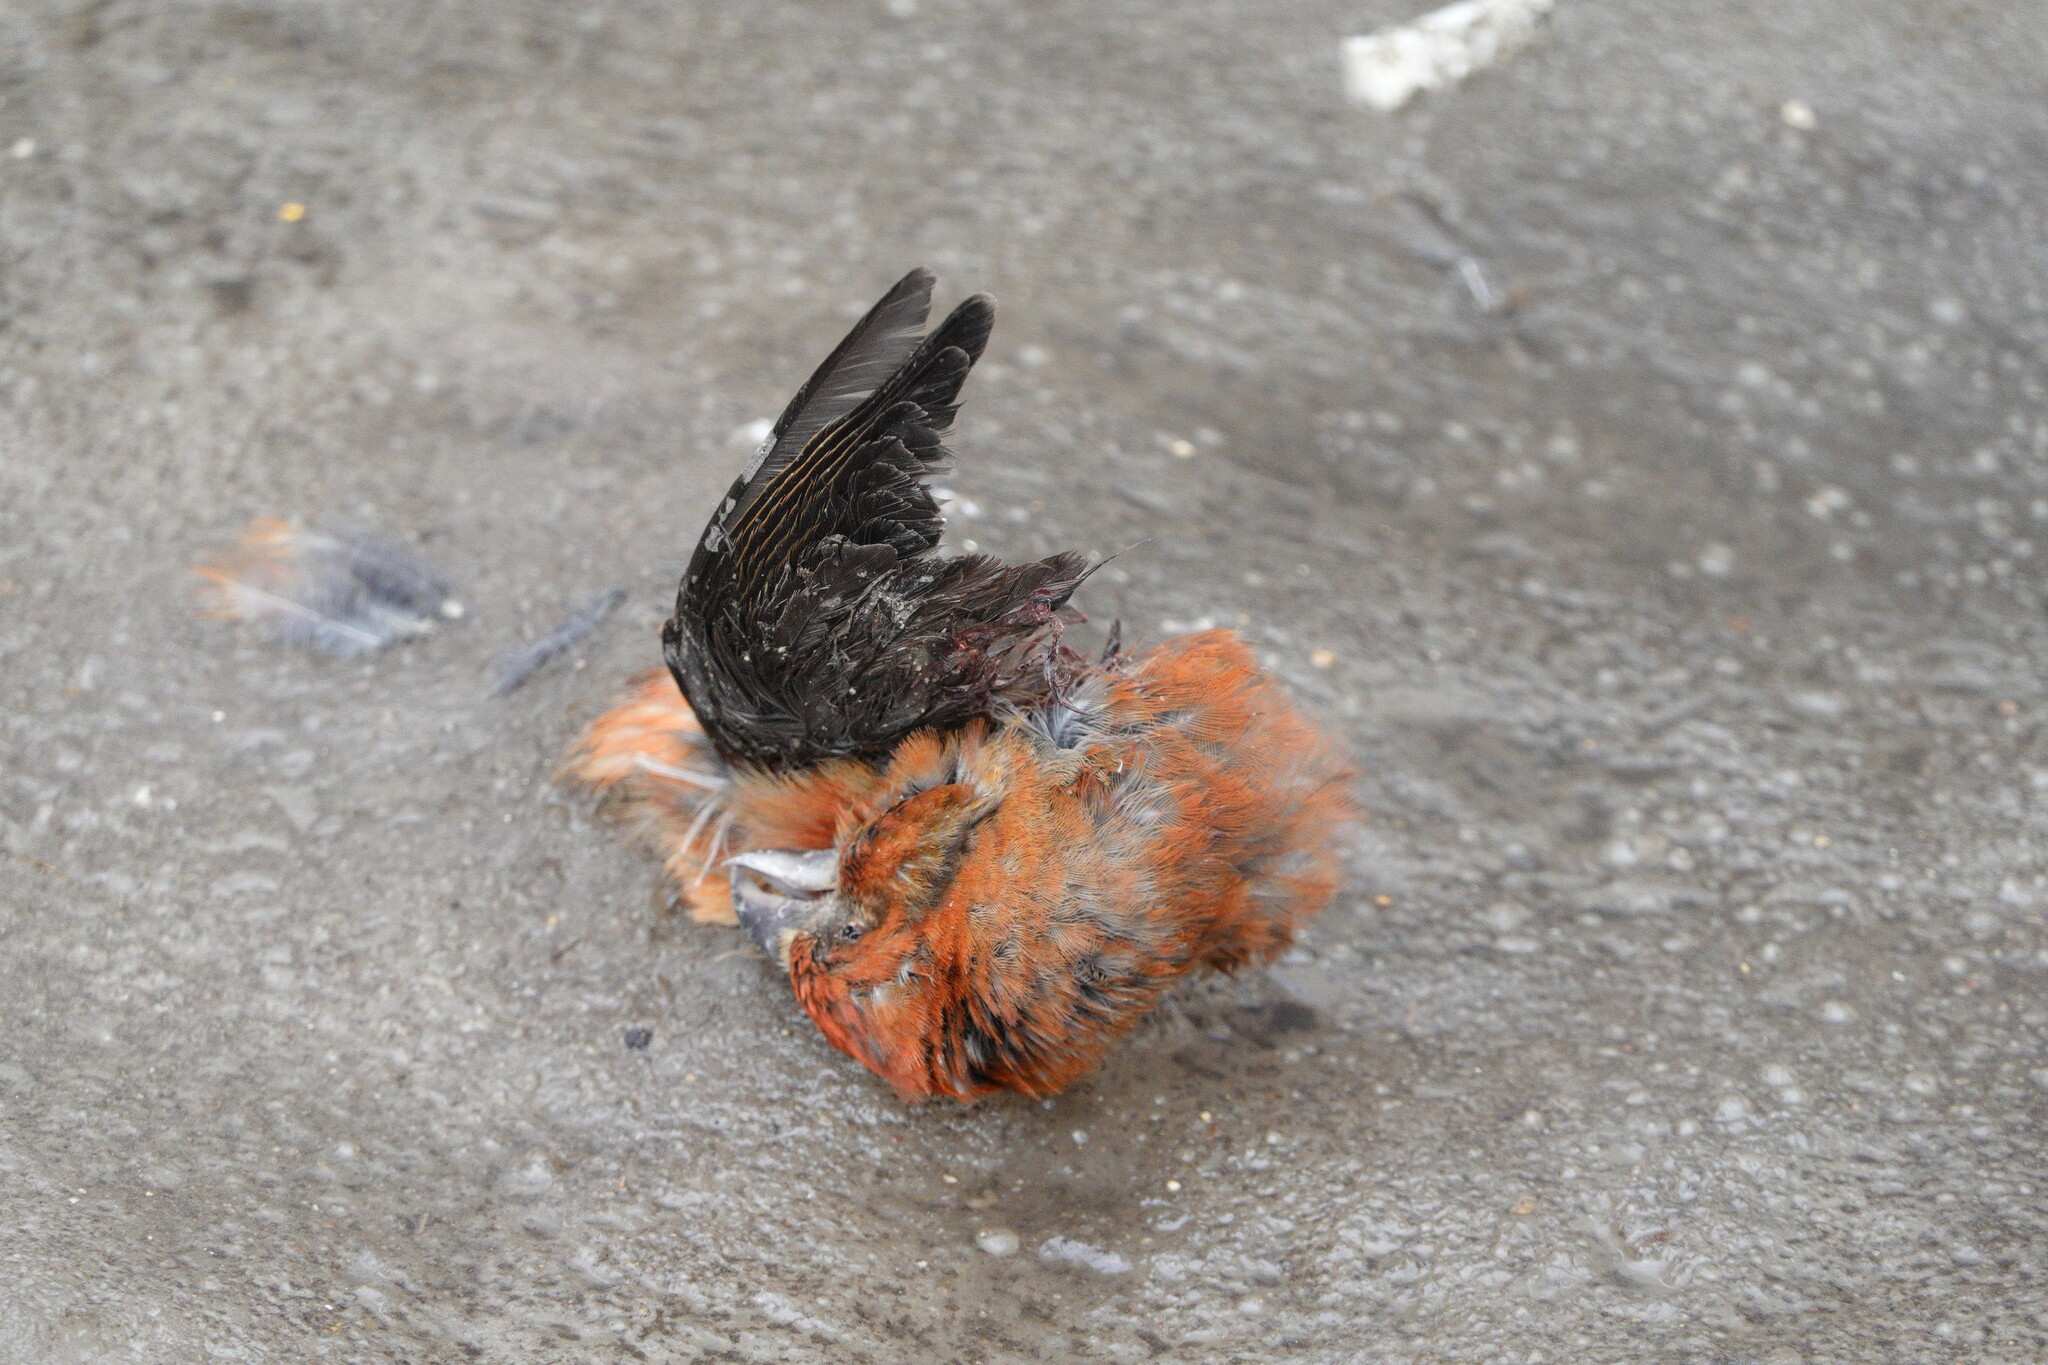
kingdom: Animalia
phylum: Chordata
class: Aves
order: Passeriformes
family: Fringillidae
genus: Loxia
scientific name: Loxia curvirostra
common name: Red crossbill
